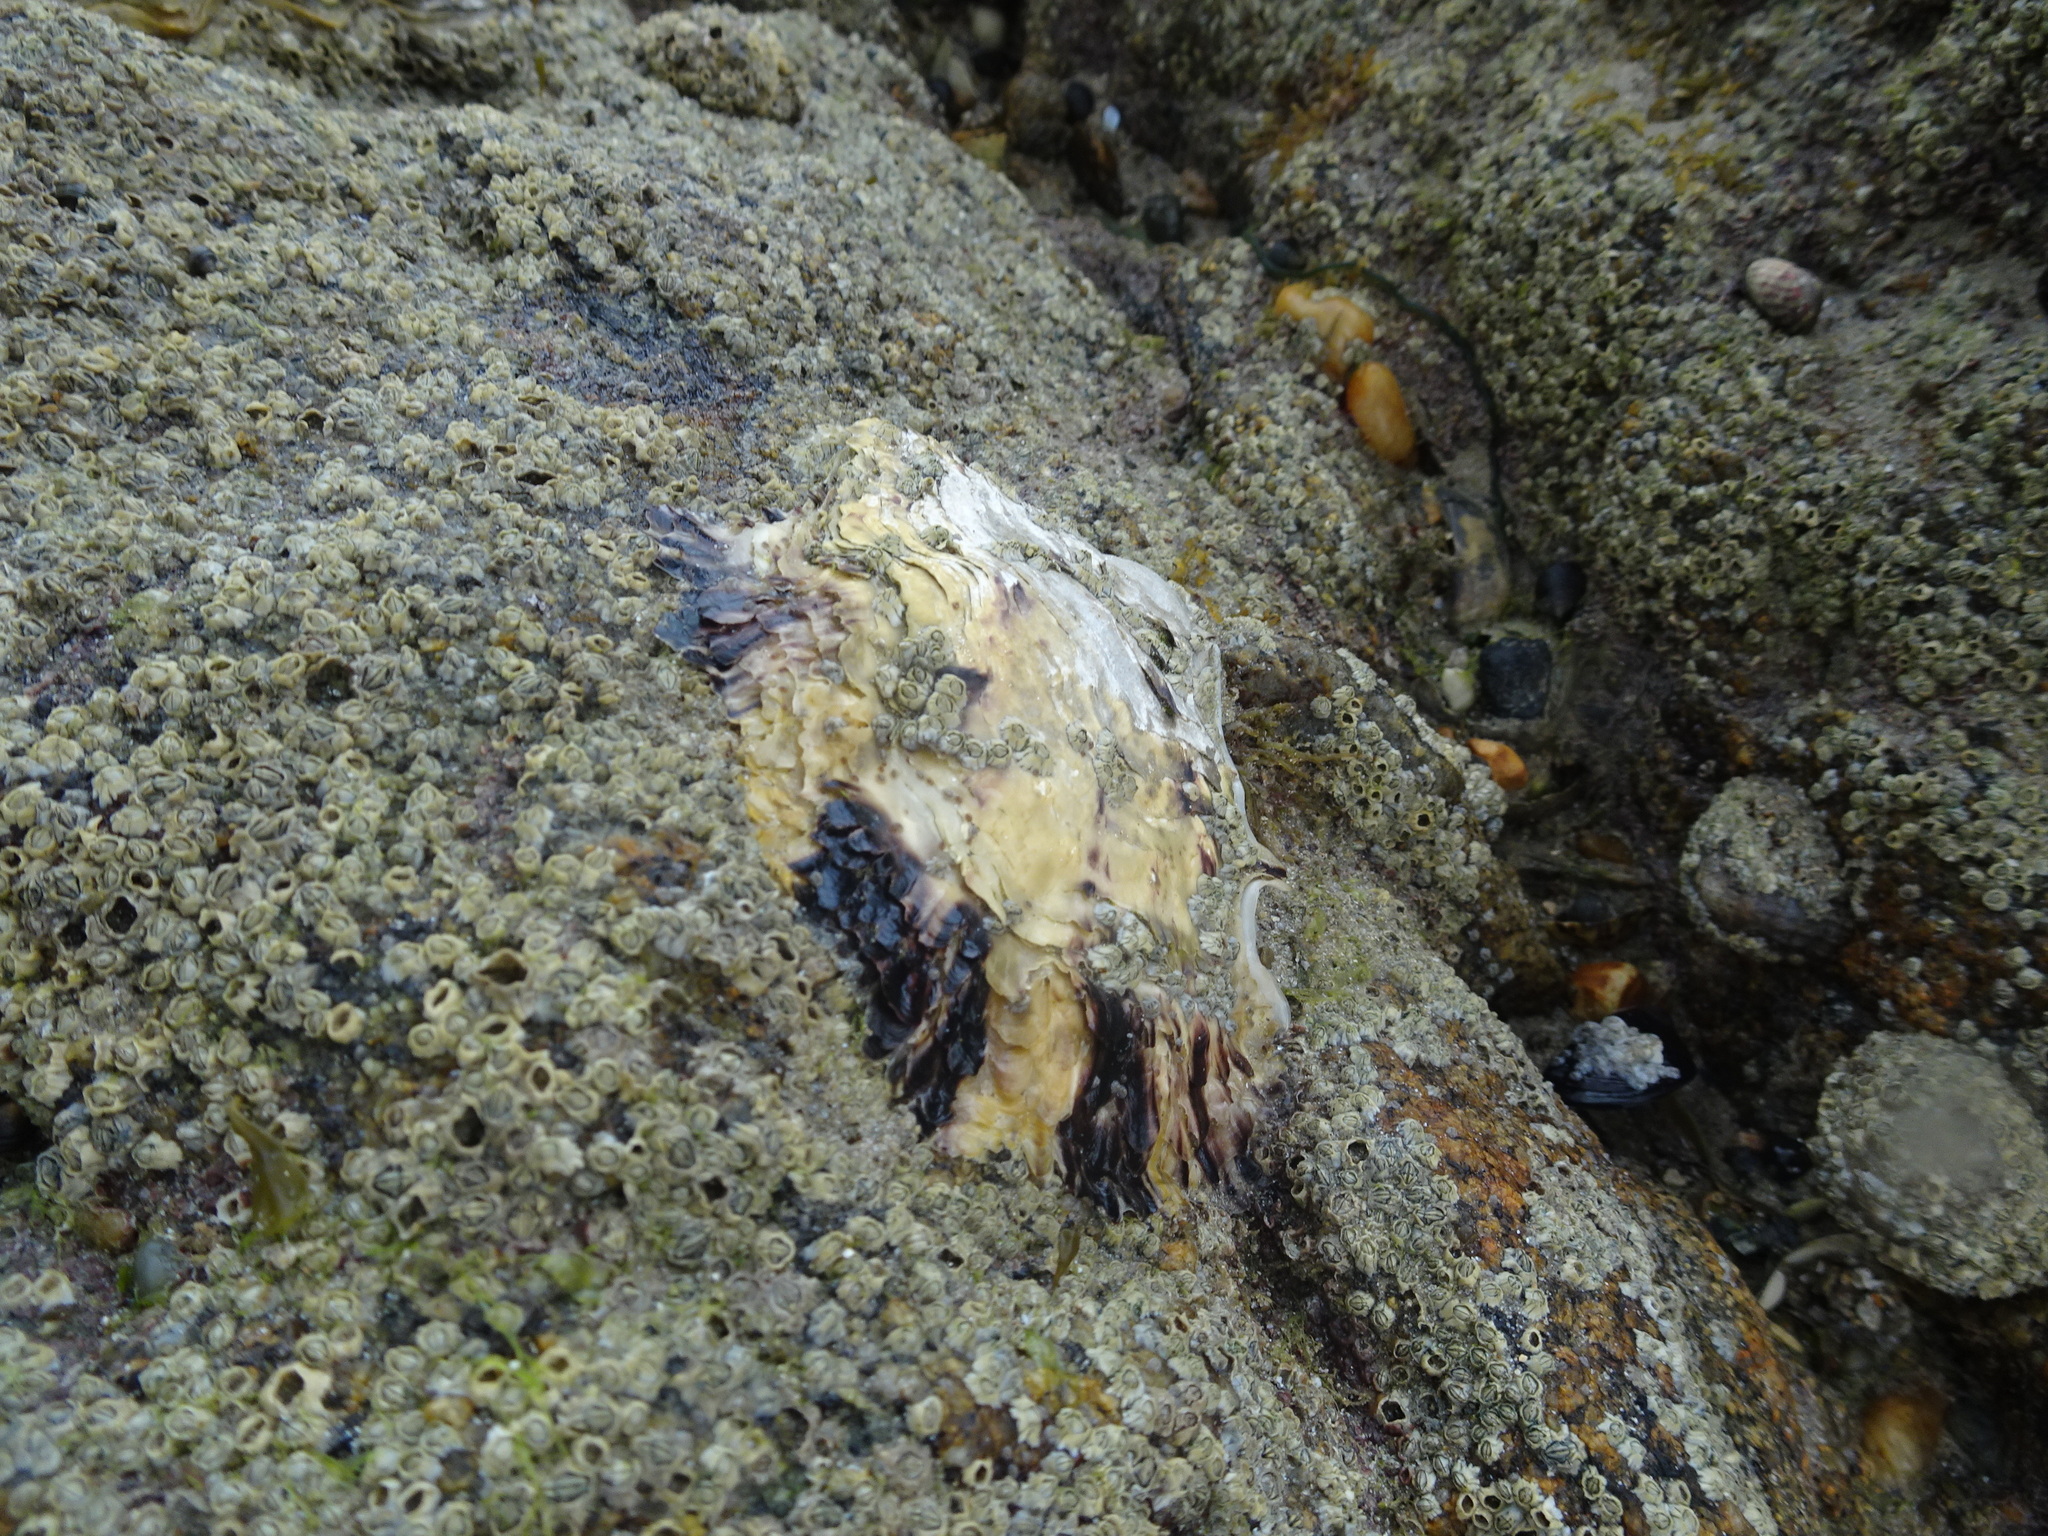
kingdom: Animalia
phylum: Mollusca
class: Bivalvia
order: Ostreida
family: Ostreidae
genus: Magallana
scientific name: Magallana gigas
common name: Pacific oyster
